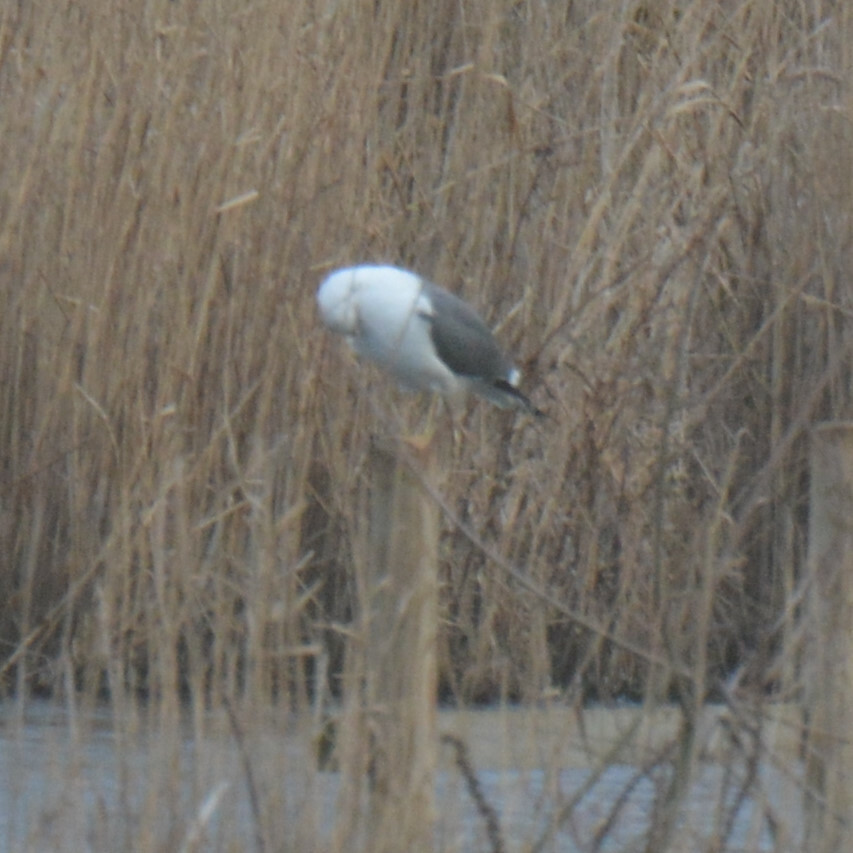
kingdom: Animalia
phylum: Chordata
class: Aves
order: Charadriiformes
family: Laridae
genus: Larus
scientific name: Larus fuscus
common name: Lesser black-backed gull
